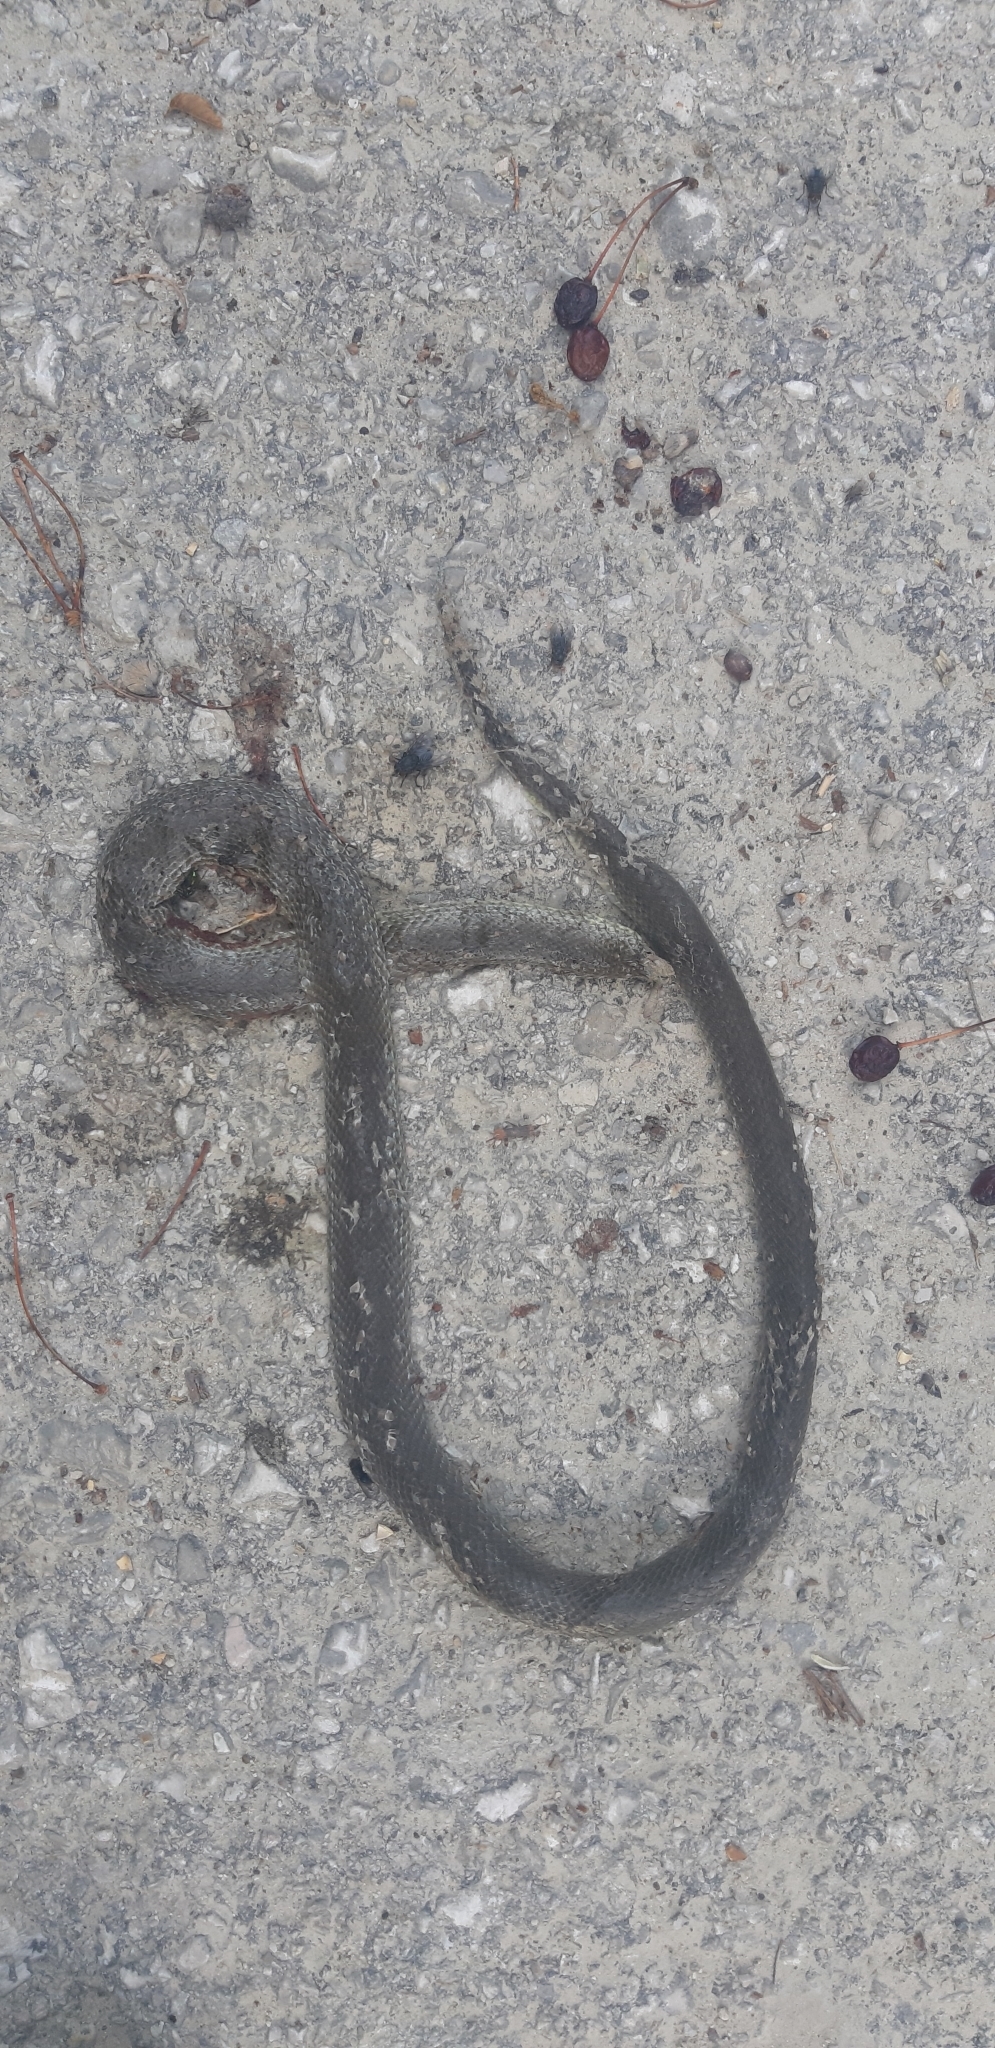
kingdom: Animalia
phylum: Chordata
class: Squamata
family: Colubridae
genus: Zamenis
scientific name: Zamenis longissimus
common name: Aesculapean snake
